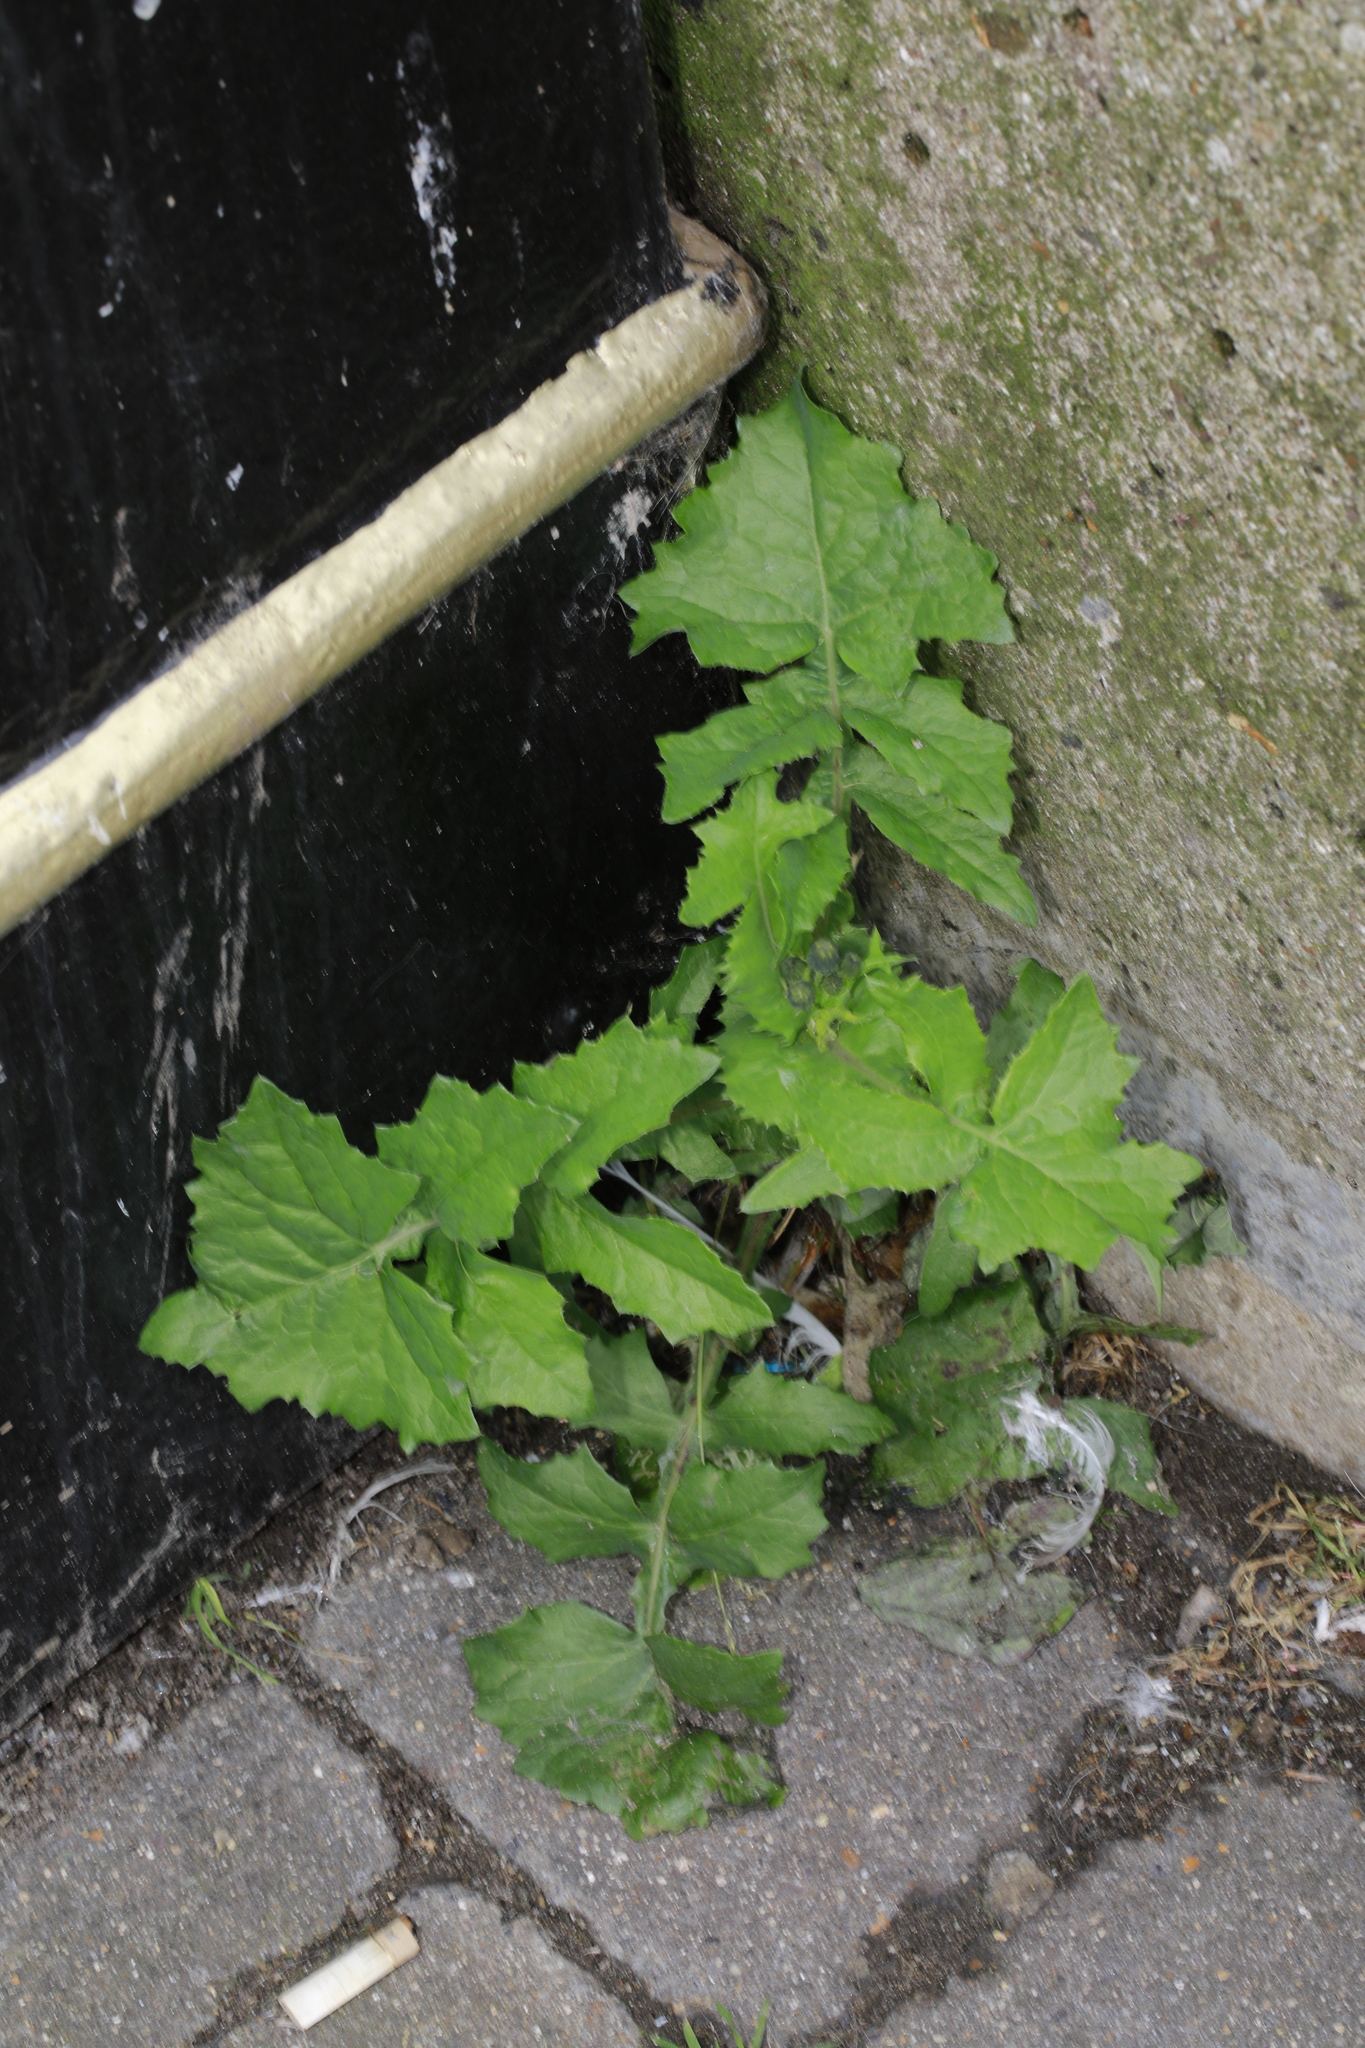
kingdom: Plantae
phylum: Tracheophyta
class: Magnoliopsida
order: Asterales
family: Asteraceae
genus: Sonchus
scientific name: Sonchus oleraceus
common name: Common sowthistle
